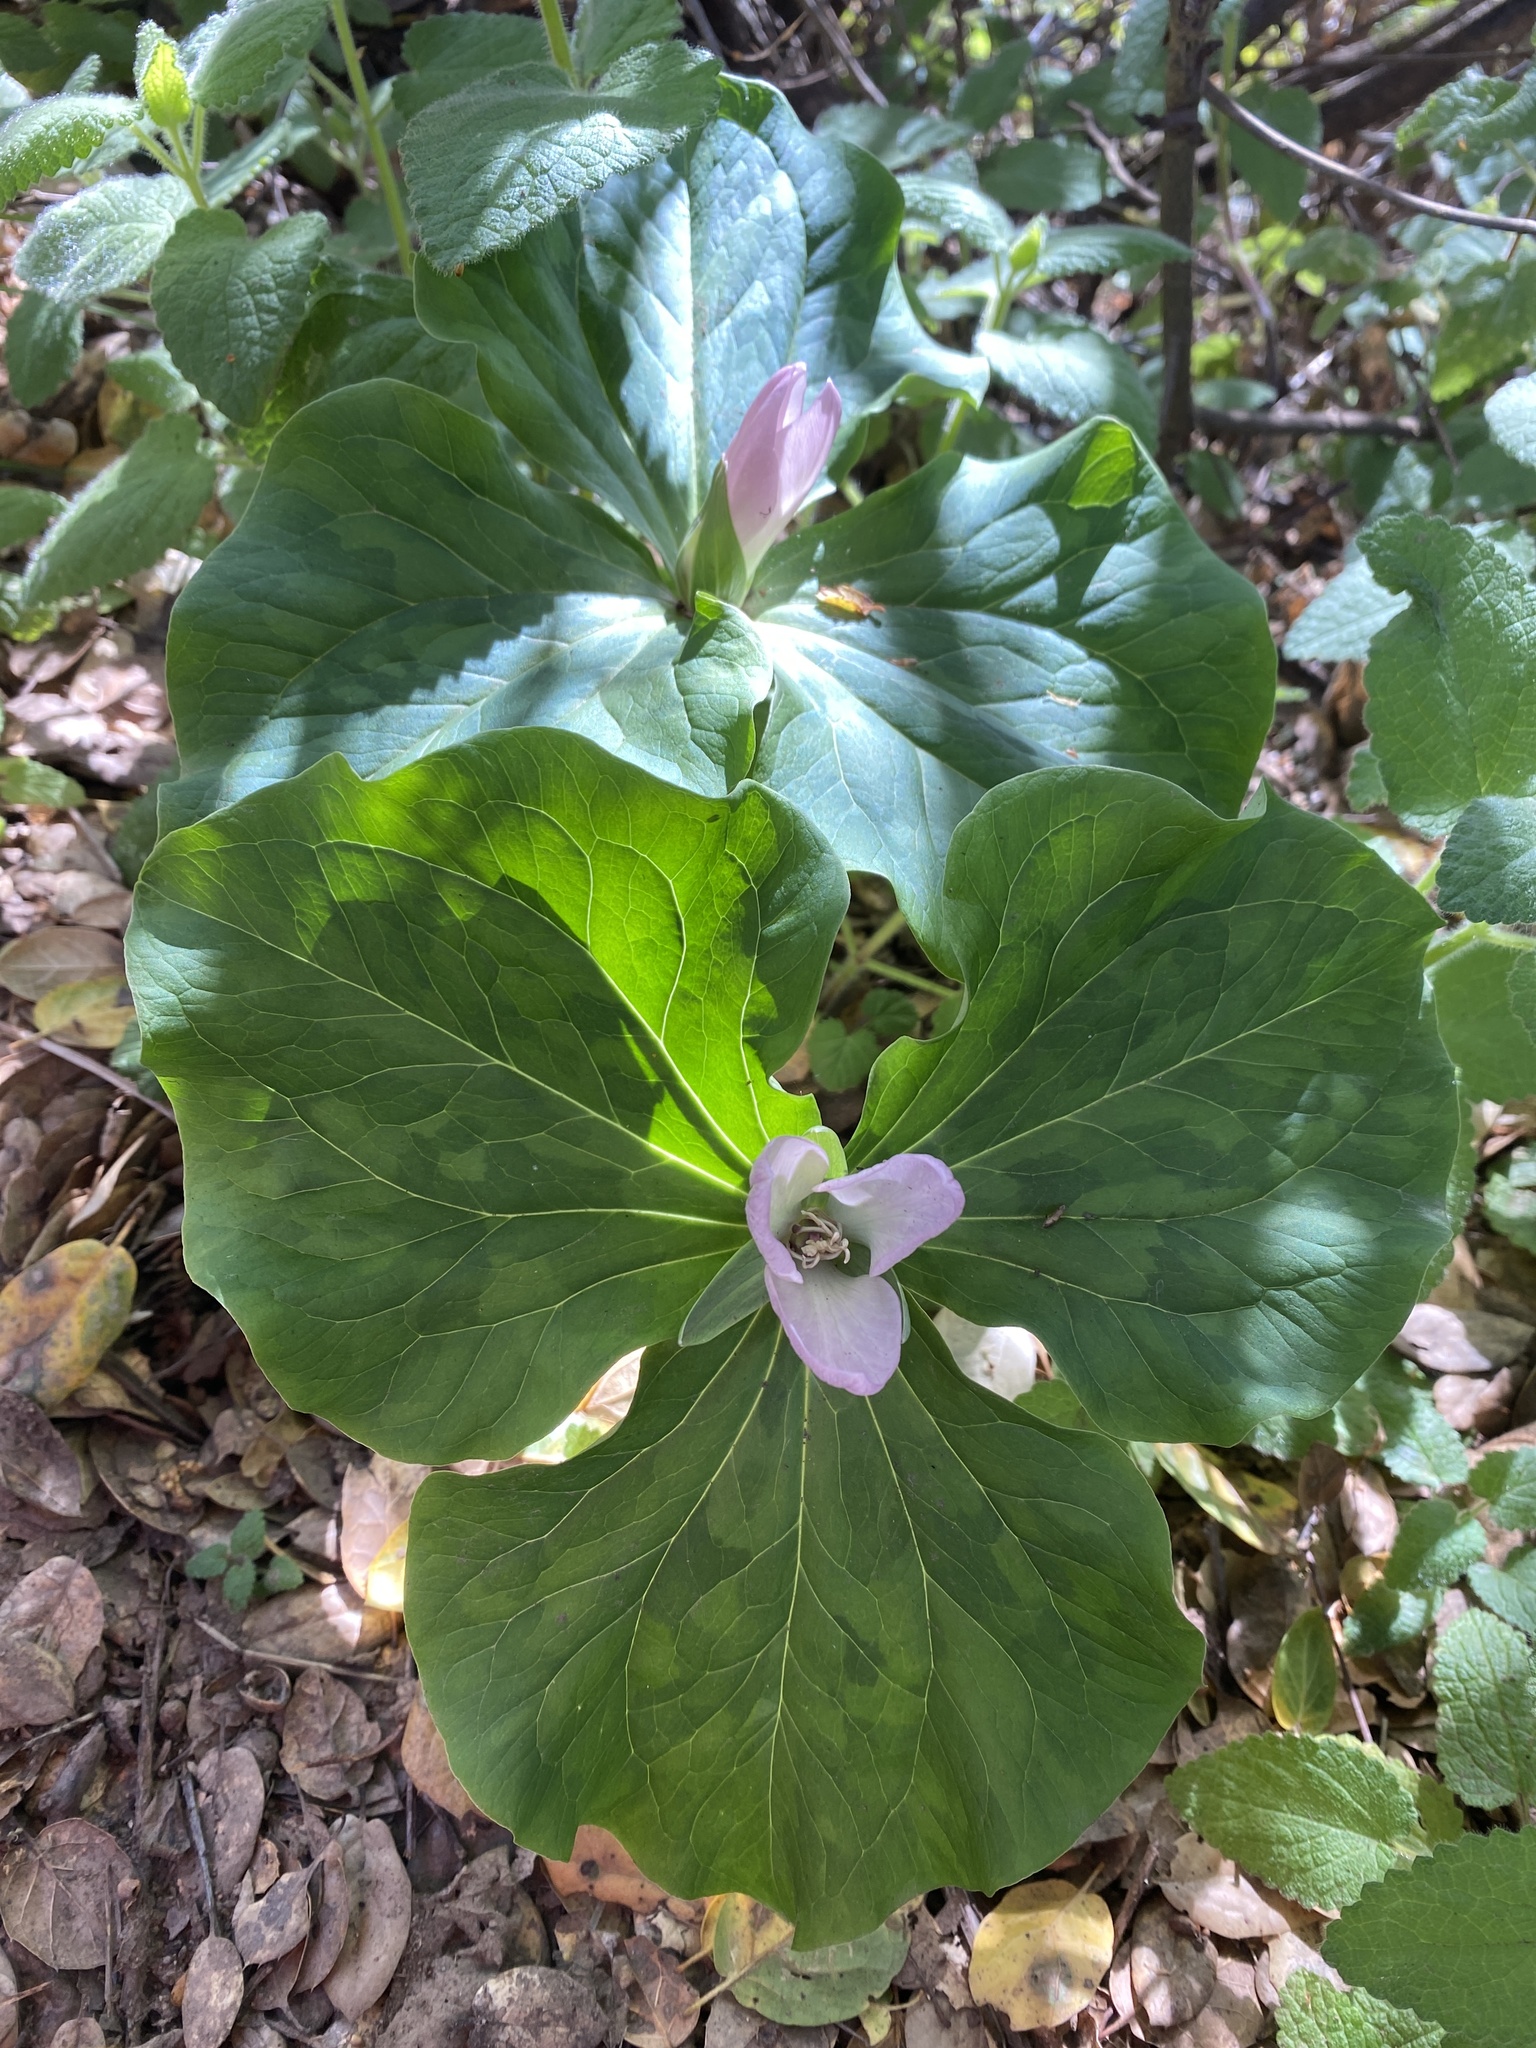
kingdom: Plantae
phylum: Tracheophyta
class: Liliopsida
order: Liliales
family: Melanthiaceae
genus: Trillium
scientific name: Trillium chloropetalum
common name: Giant trillium
